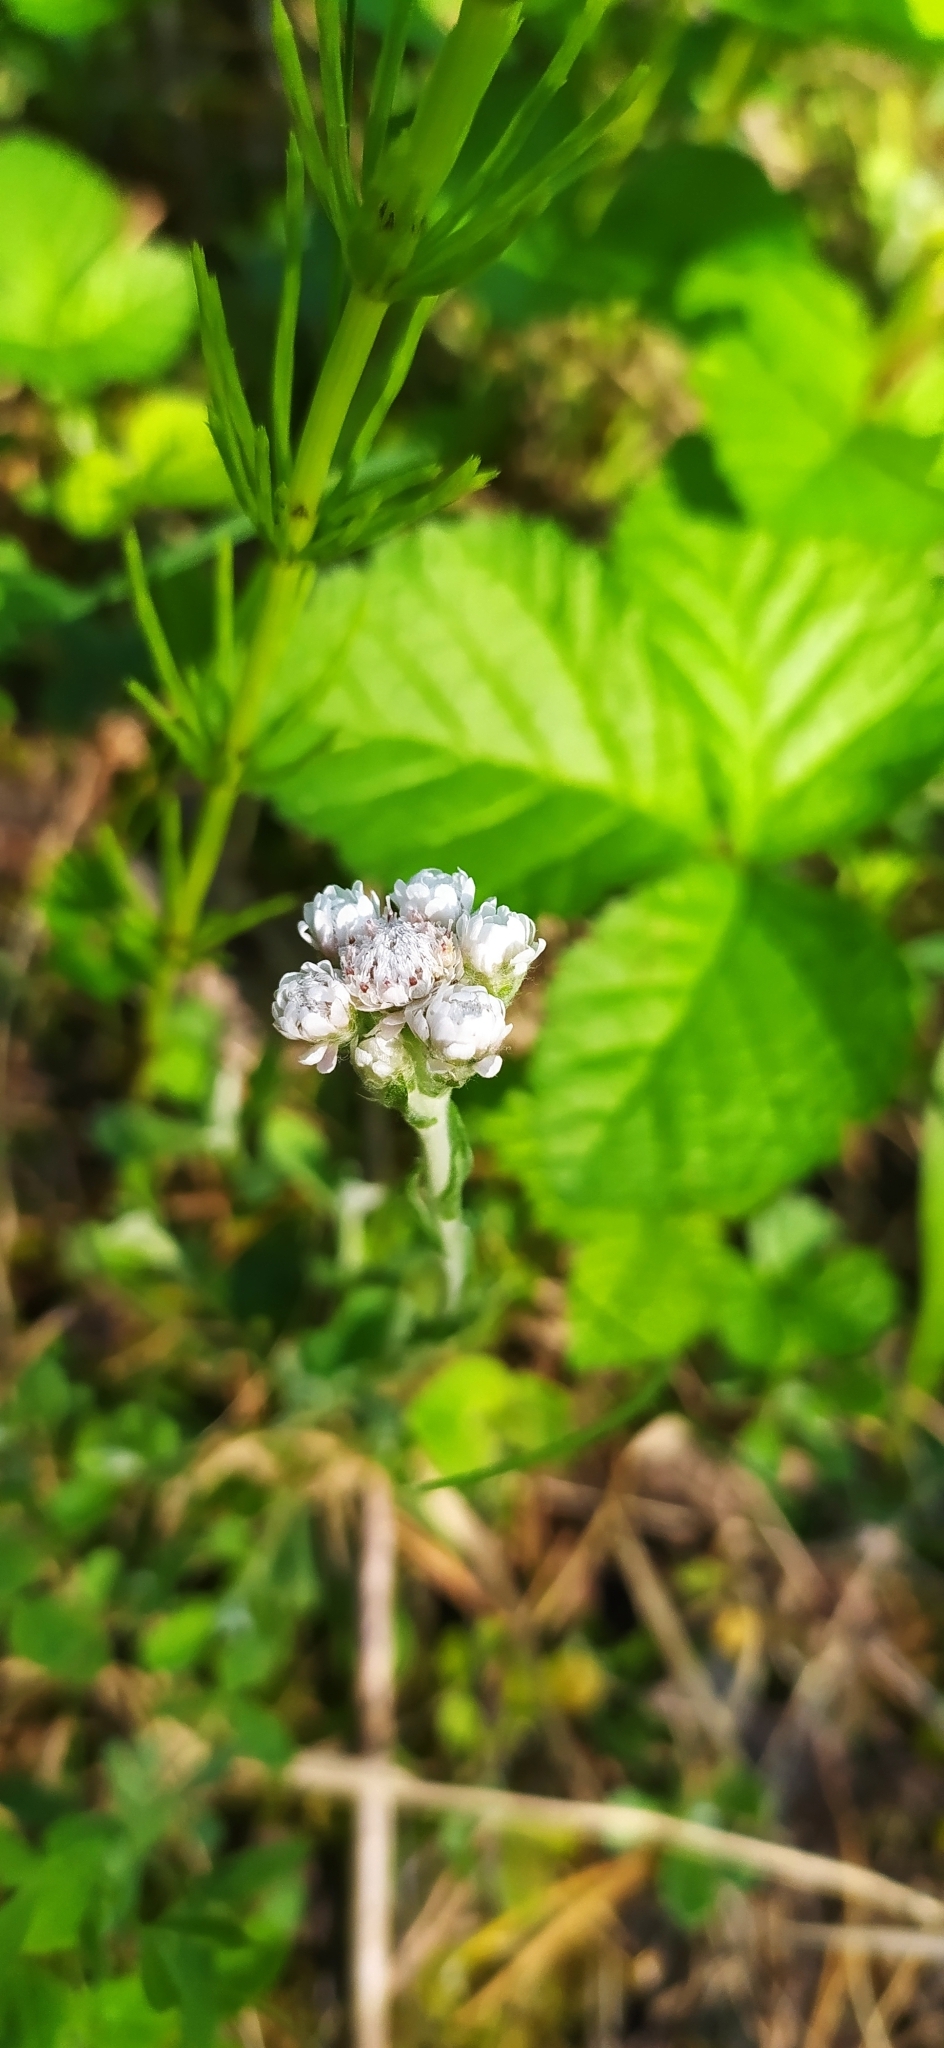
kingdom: Plantae
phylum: Tracheophyta
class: Magnoliopsida
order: Asterales
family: Asteraceae
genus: Antennaria
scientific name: Antennaria dioica
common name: Mountain everlasting
